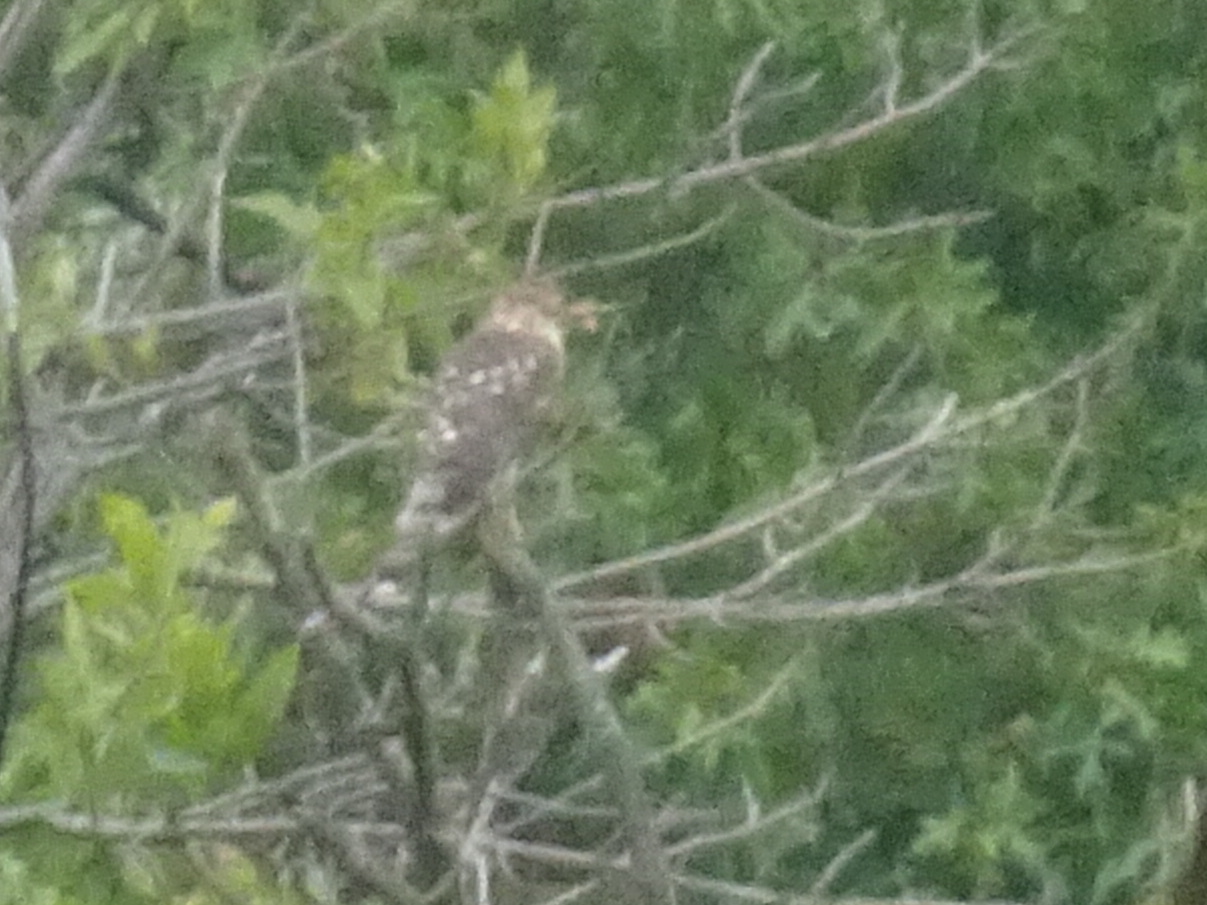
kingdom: Animalia
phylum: Chordata
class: Aves
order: Accipitriformes
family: Accipitridae
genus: Accipiter
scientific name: Accipiter
